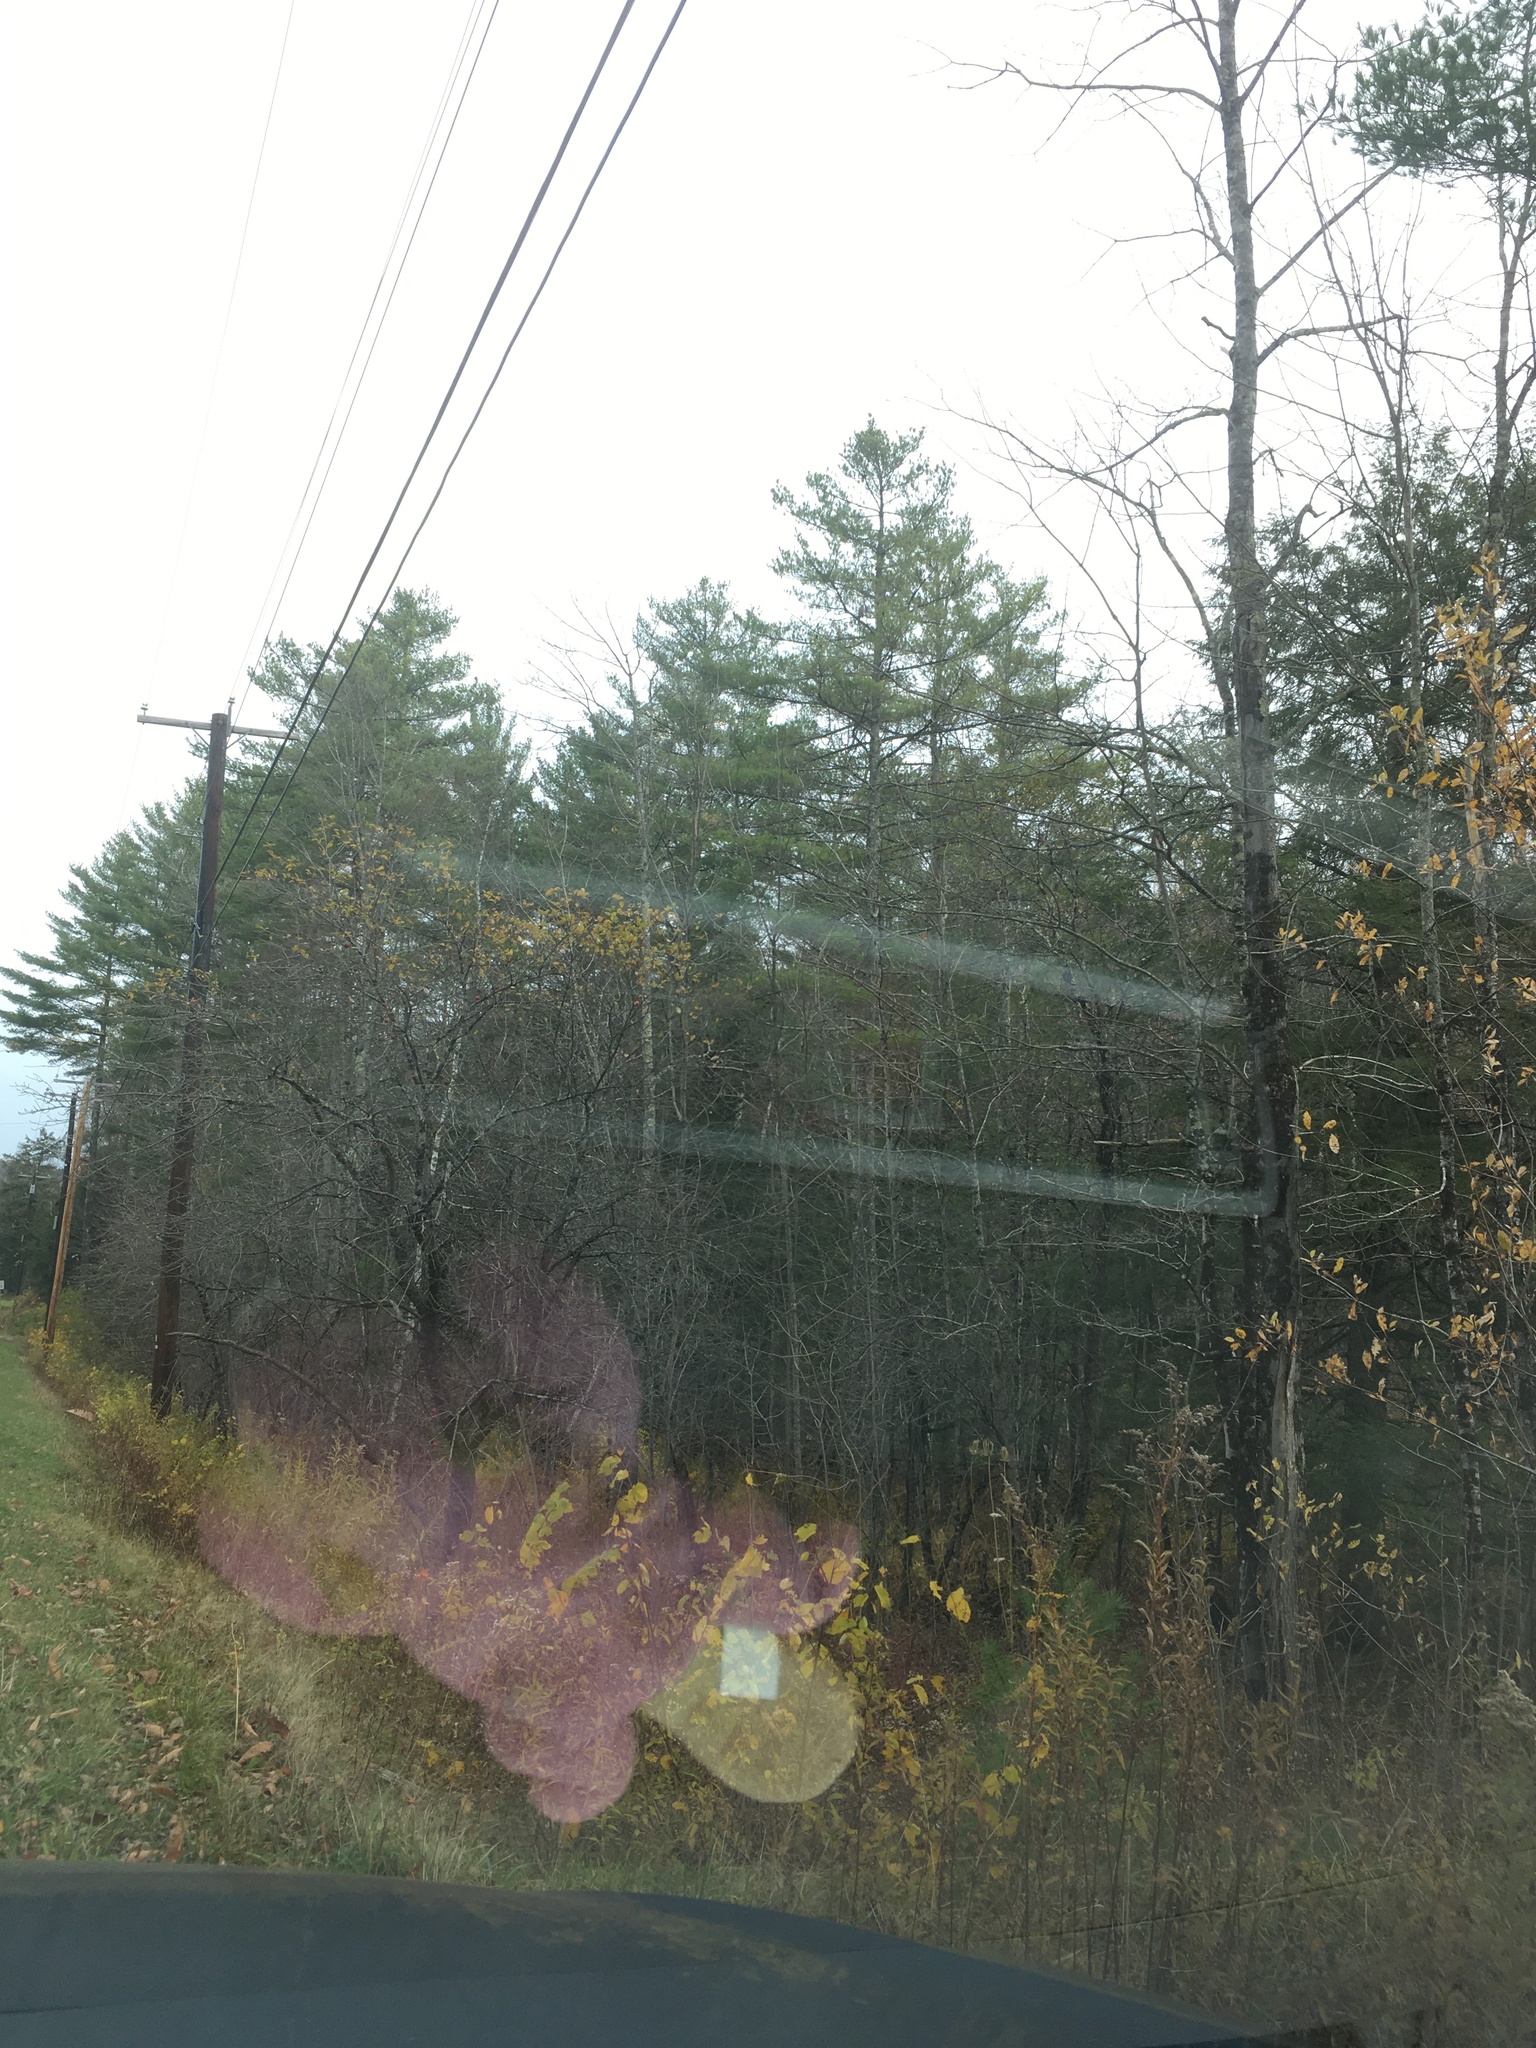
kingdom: Plantae
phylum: Tracheophyta
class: Pinopsida
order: Pinales
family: Pinaceae
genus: Pinus
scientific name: Pinus strobus
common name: Weymouth pine
